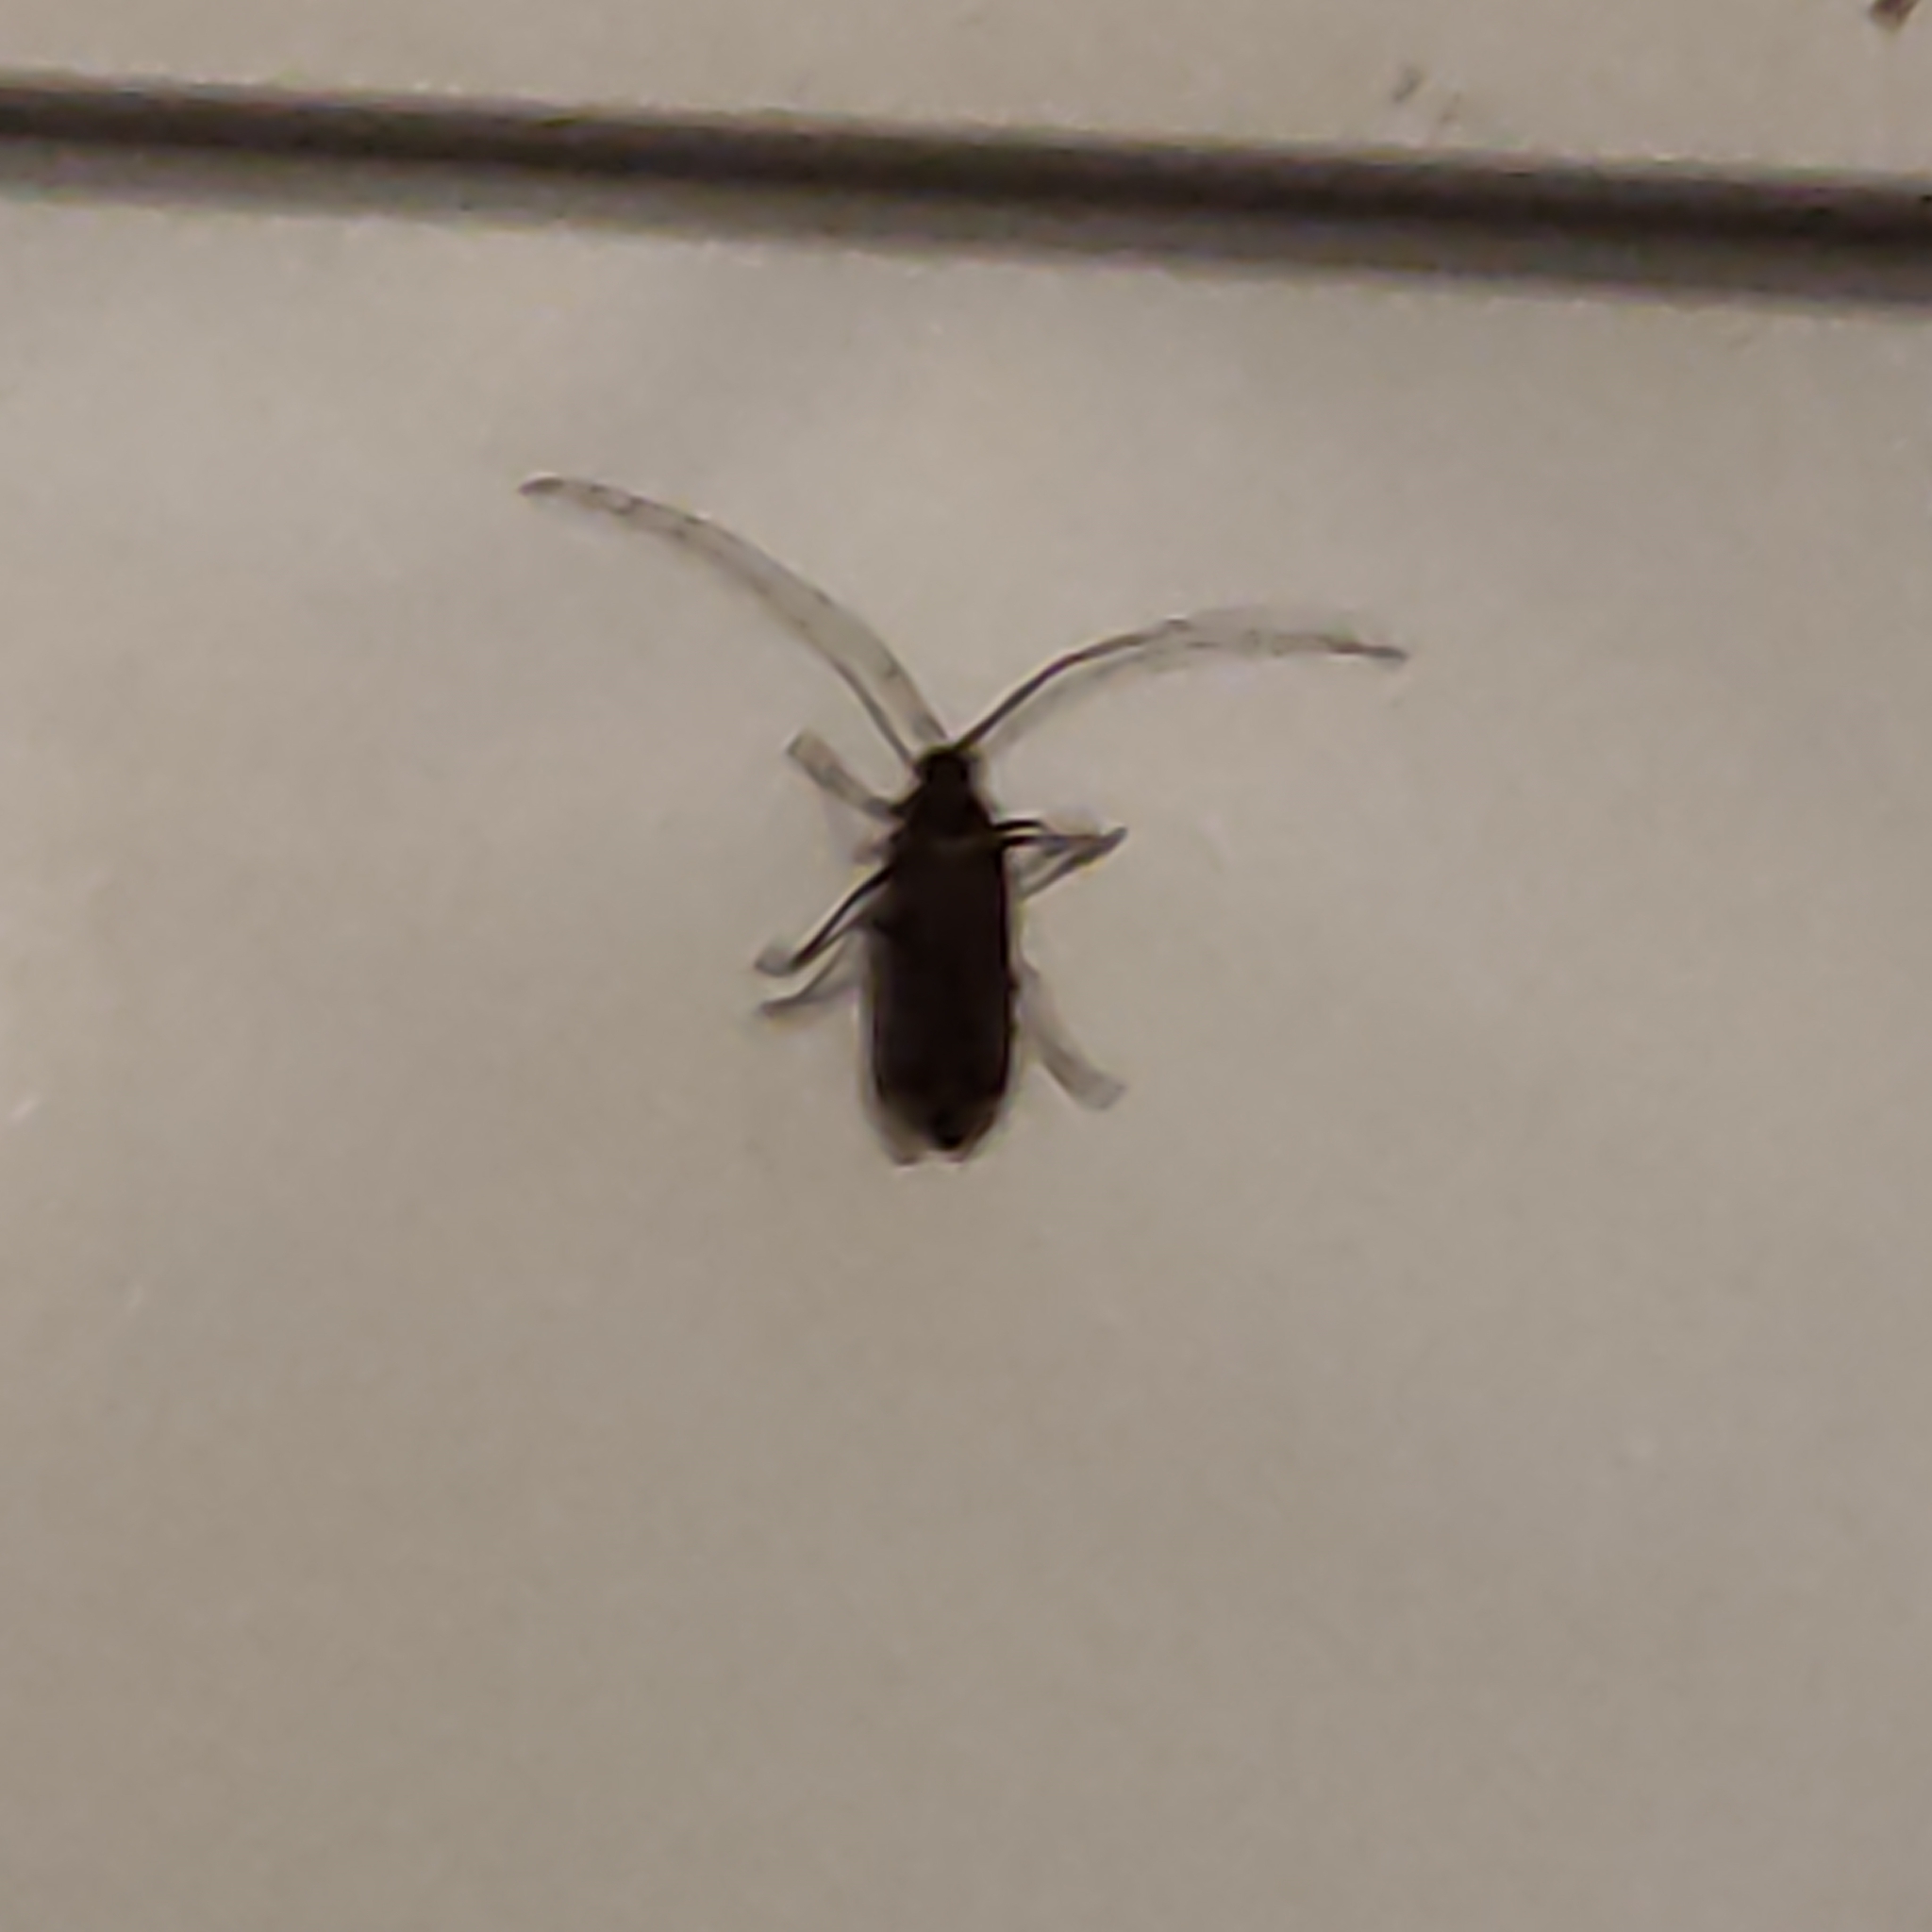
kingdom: Animalia
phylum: Arthropoda
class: Insecta
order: Coleoptera
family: Cerambycidae
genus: Prionoplus
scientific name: Prionoplus reticularis
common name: Huhu beetle
